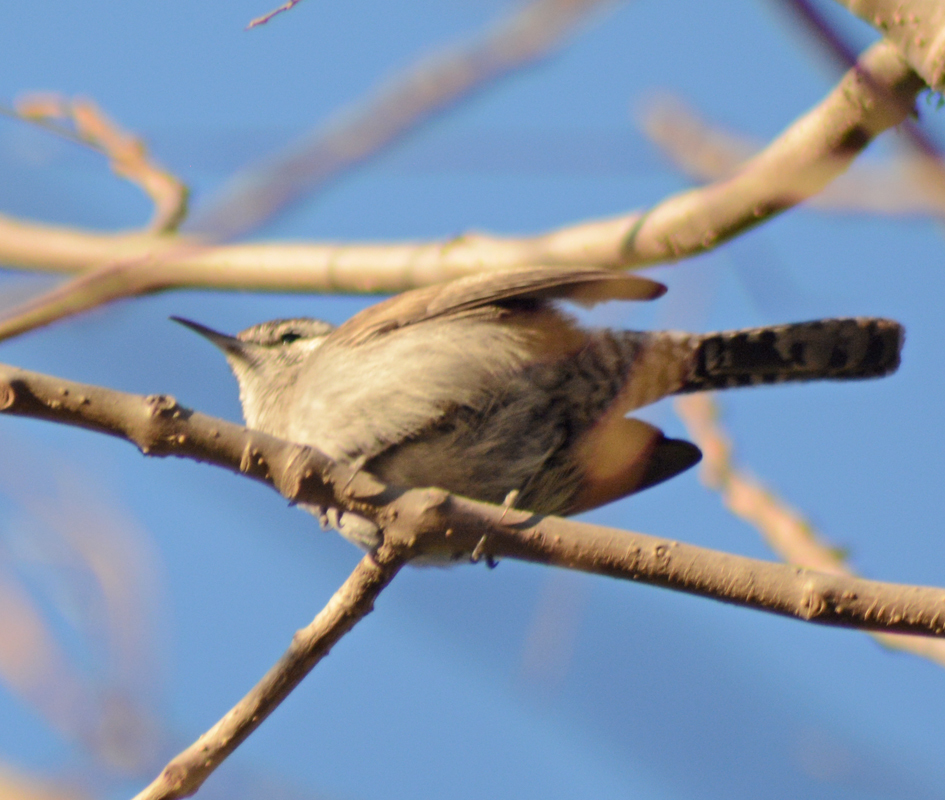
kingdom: Animalia
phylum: Chordata
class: Aves
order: Passeriformes
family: Troglodytidae
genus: Thryomanes
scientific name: Thryomanes bewickii
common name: Bewick's wren
